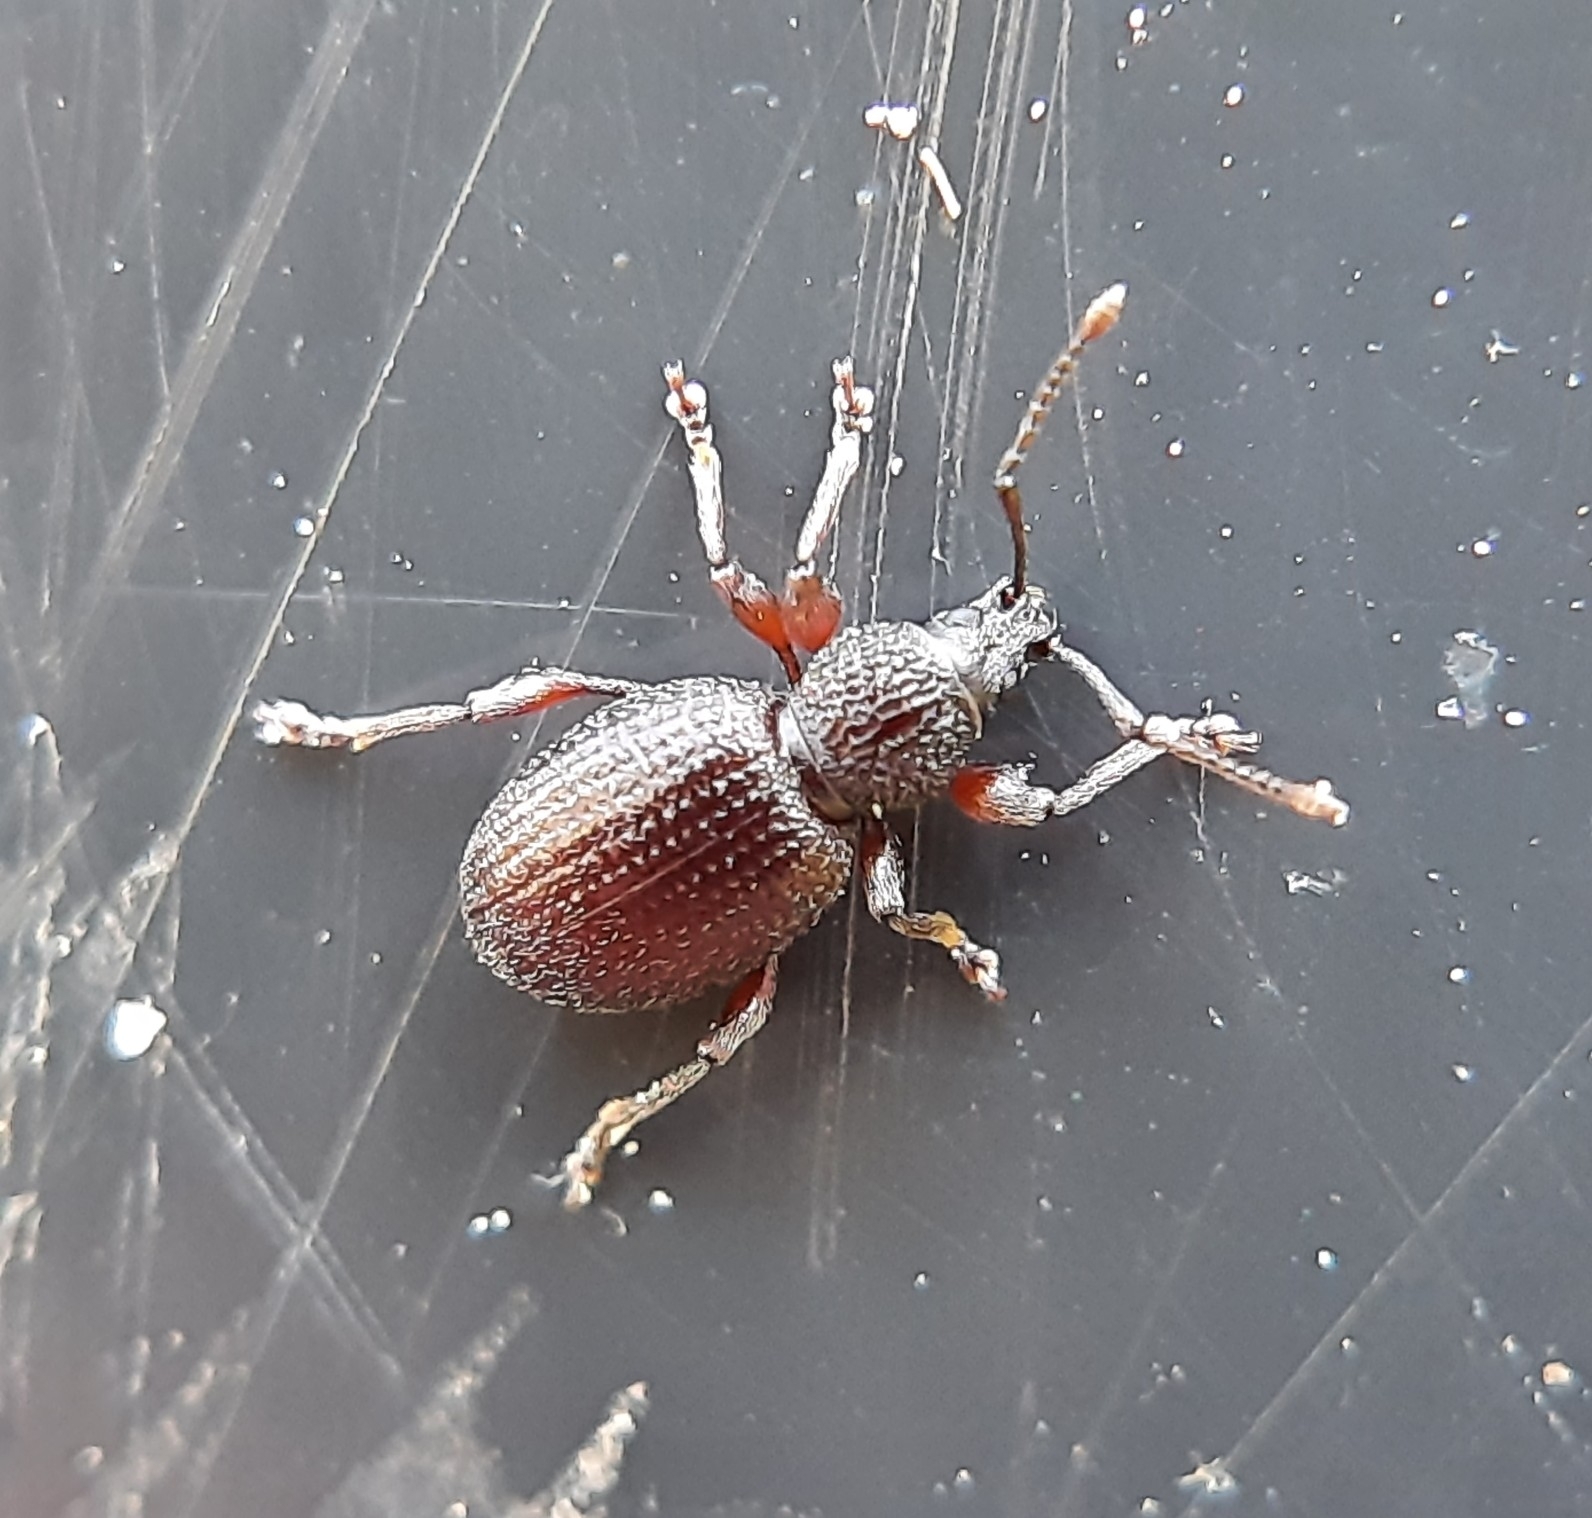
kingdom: Animalia
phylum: Arthropoda
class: Insecta
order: Coleoptera
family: Curculionidae
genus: Otiorhynchus
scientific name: Otiorhynchus ovatus
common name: Strawberry root weevil
